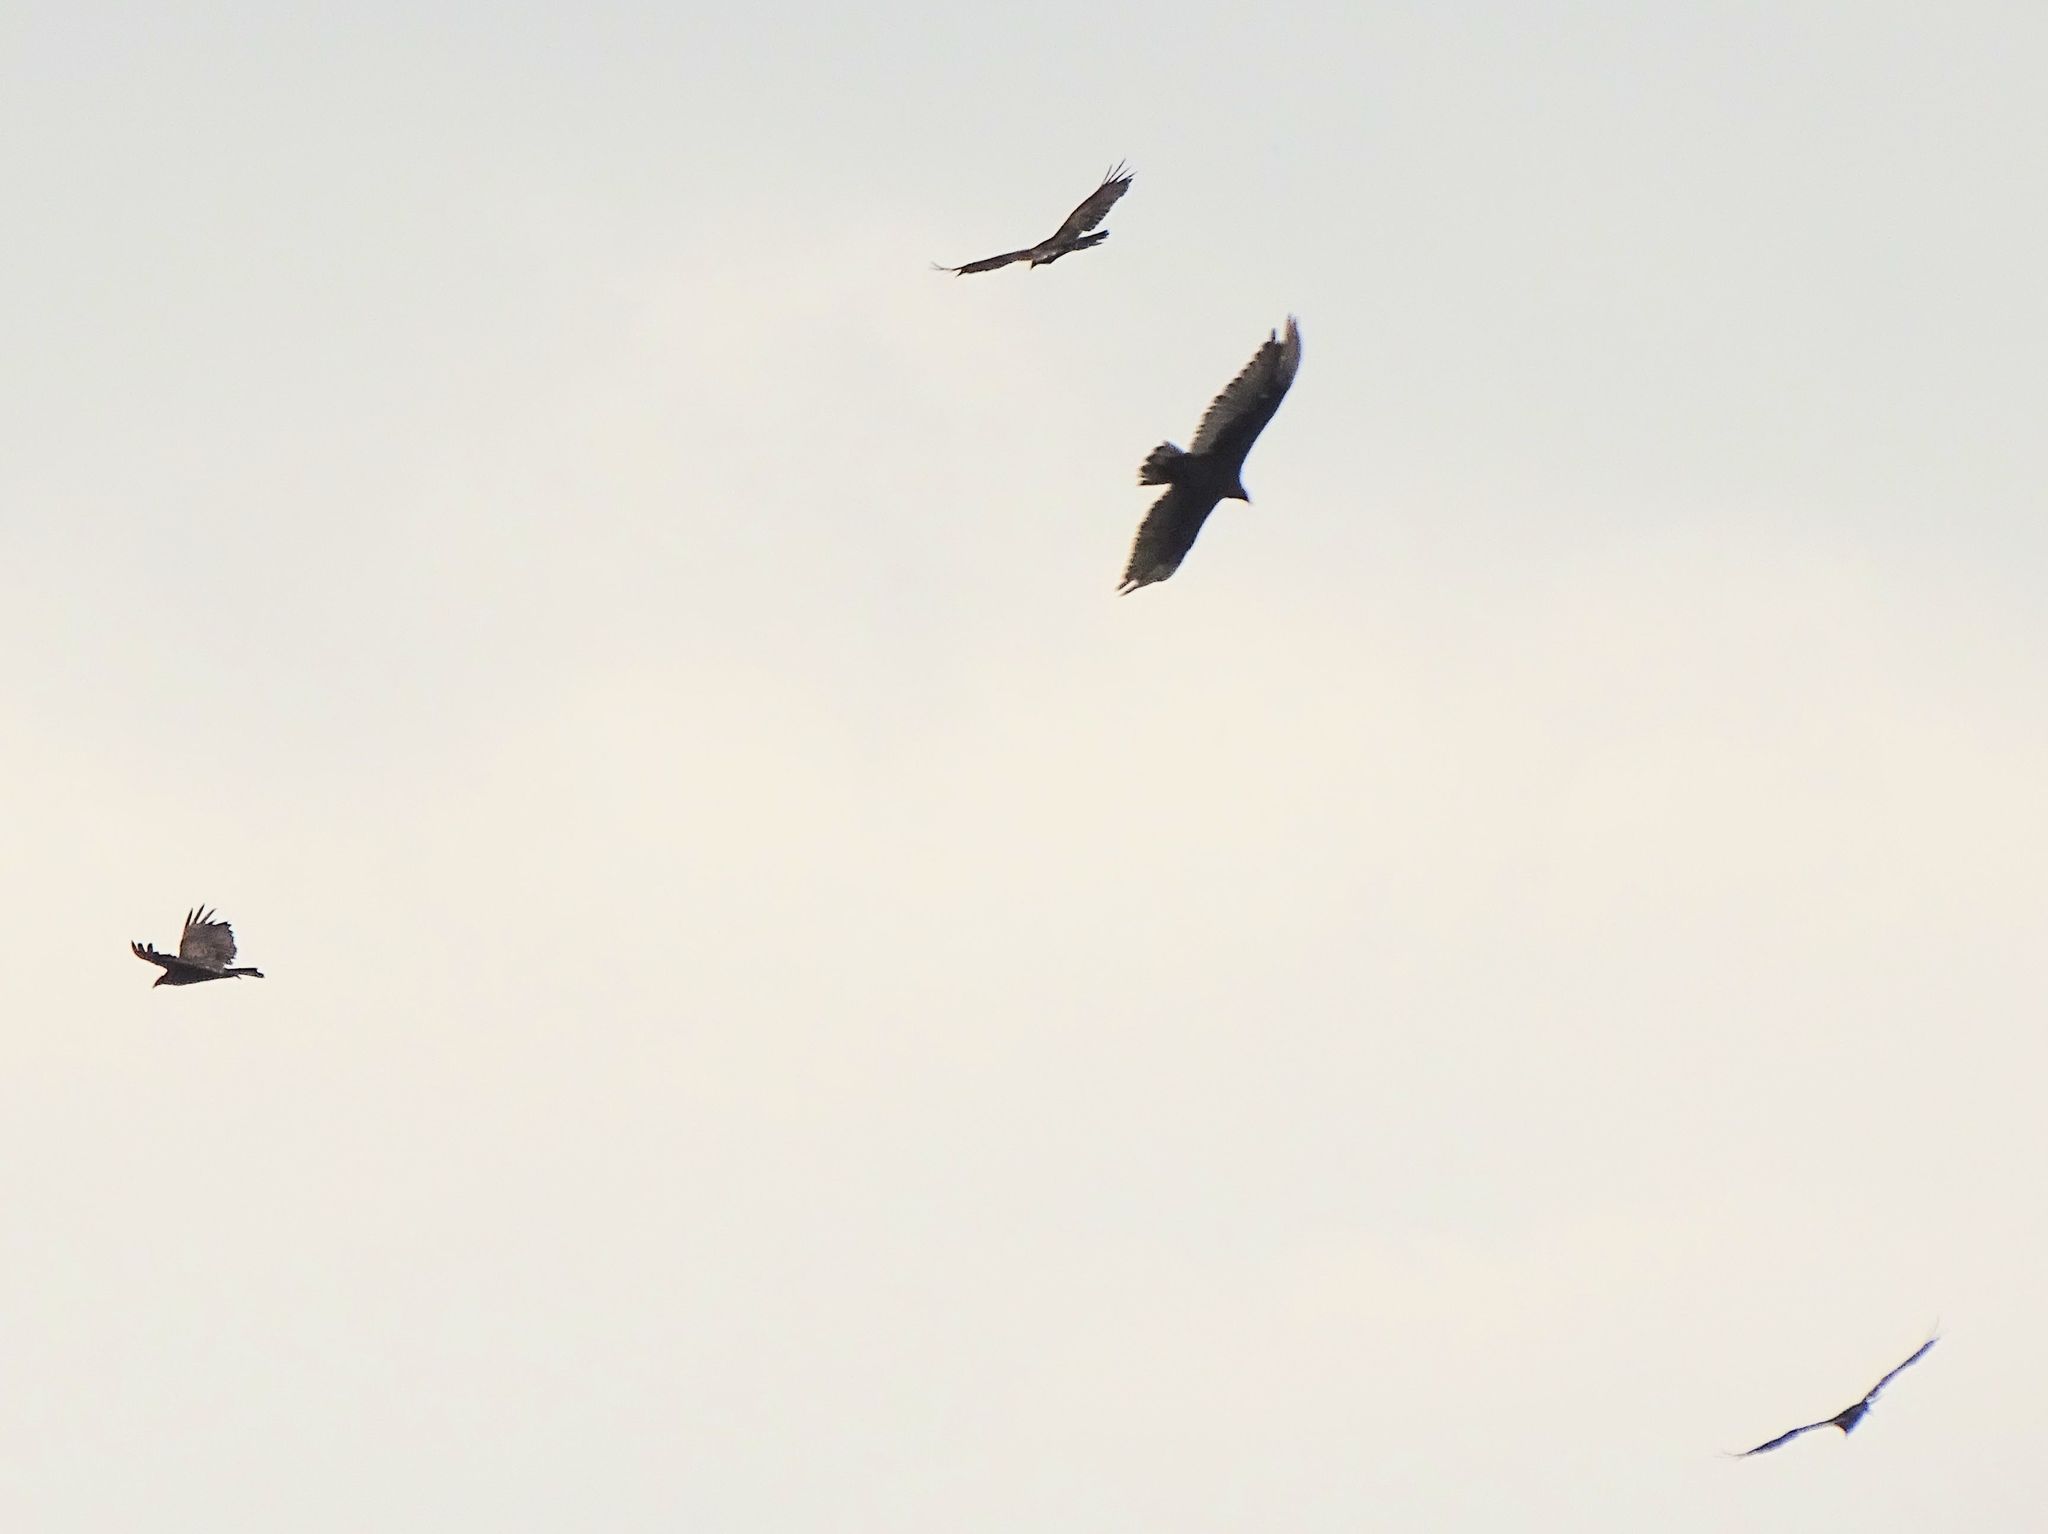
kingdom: Animalia
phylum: Chordata
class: Aves
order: Accipitriformes
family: Cathartidae
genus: Cathartes
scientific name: Cathartes aura
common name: Turkey vulture
